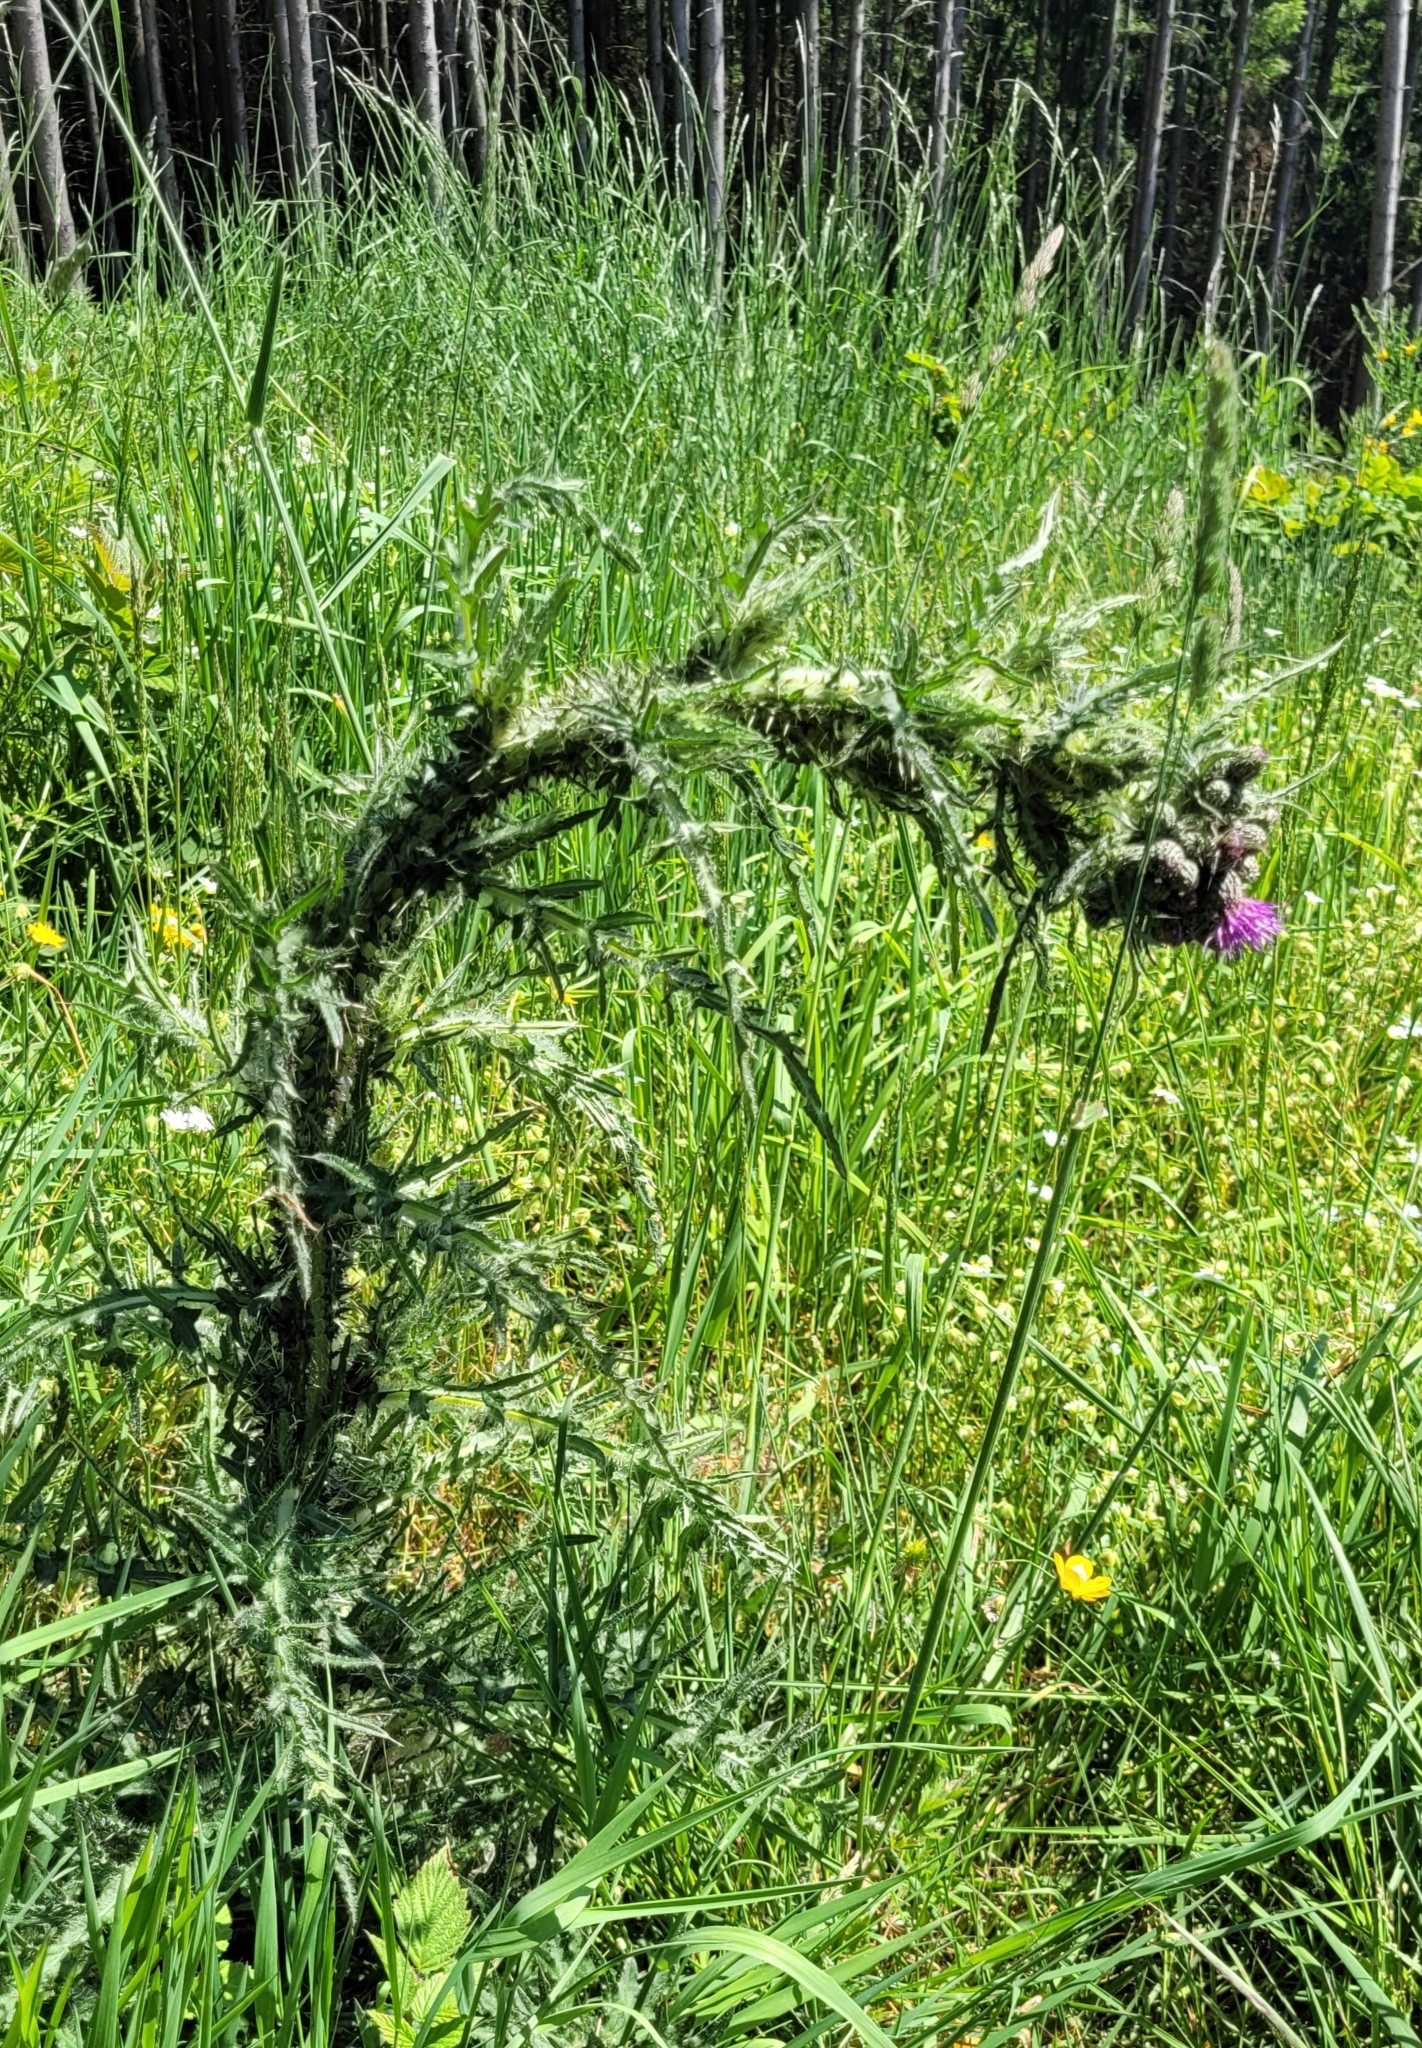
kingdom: Plantae
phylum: Tracheophyta
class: Magnoliopsida
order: Asterales
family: Asteraceae
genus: Cirsium
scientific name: Cirsium palustre
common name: Marsh thistle
